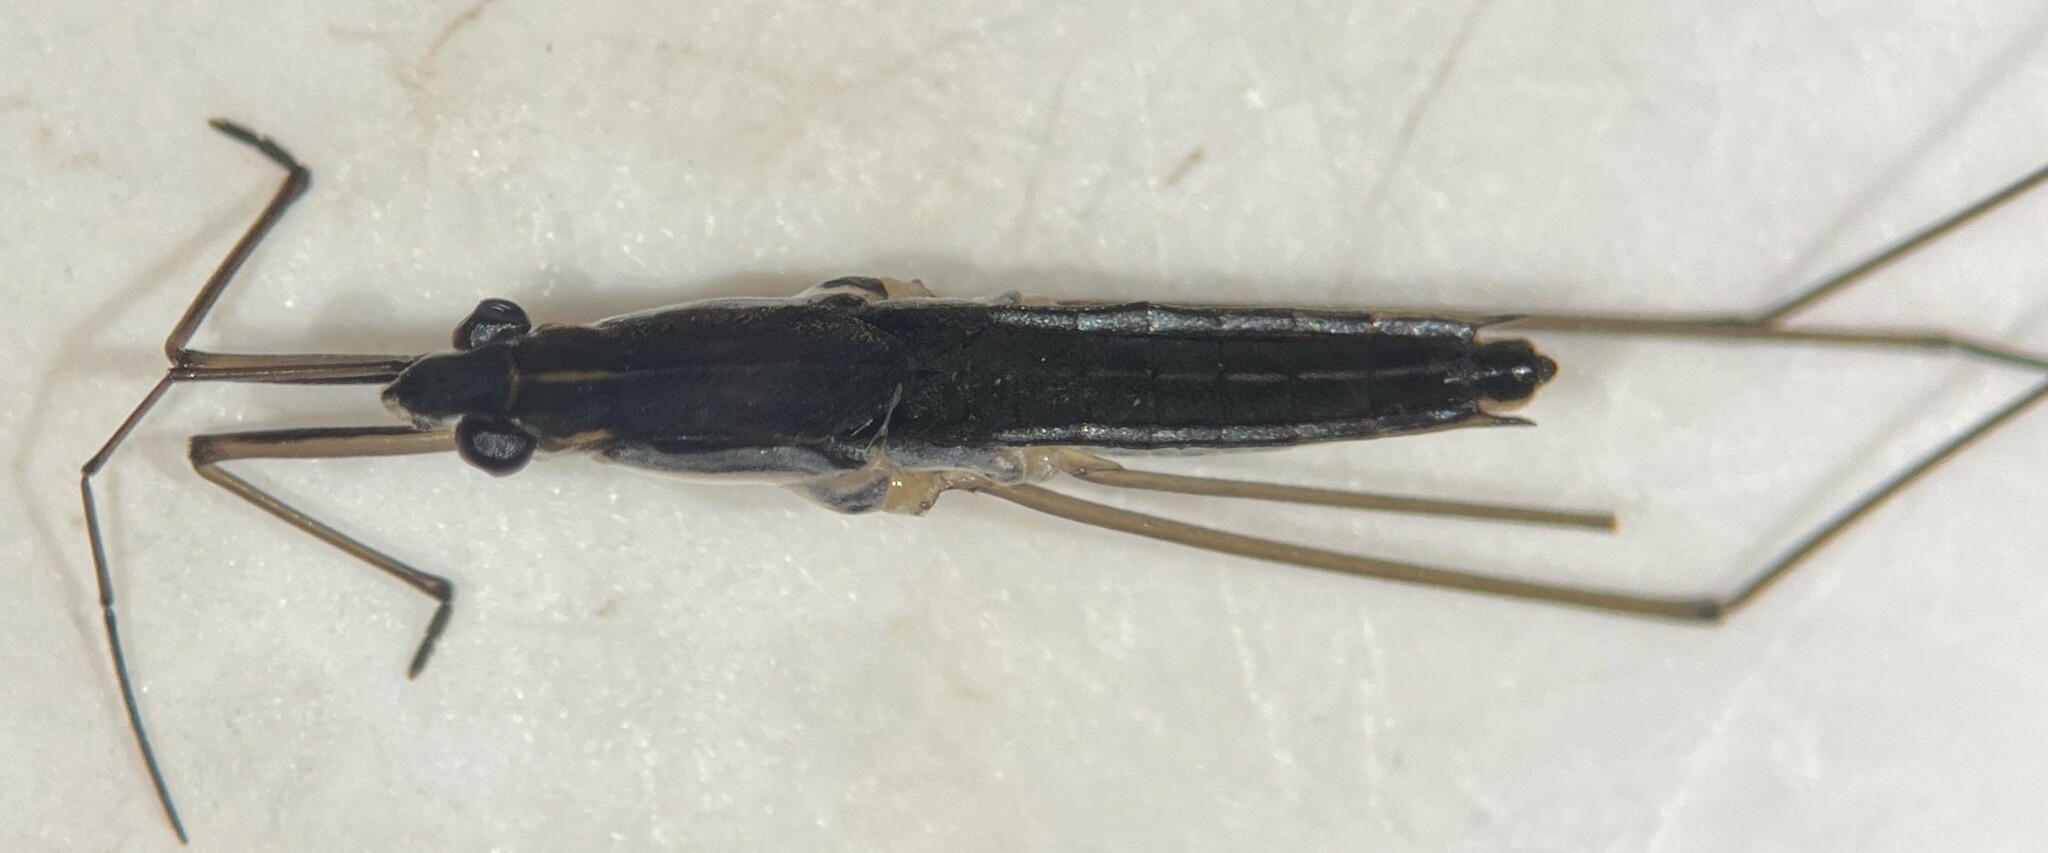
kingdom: Animalia
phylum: Arthropoda
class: Insecta
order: Hemiptera
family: Gerridae
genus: Limnoporus
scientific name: Limnoporus canaliculatus
